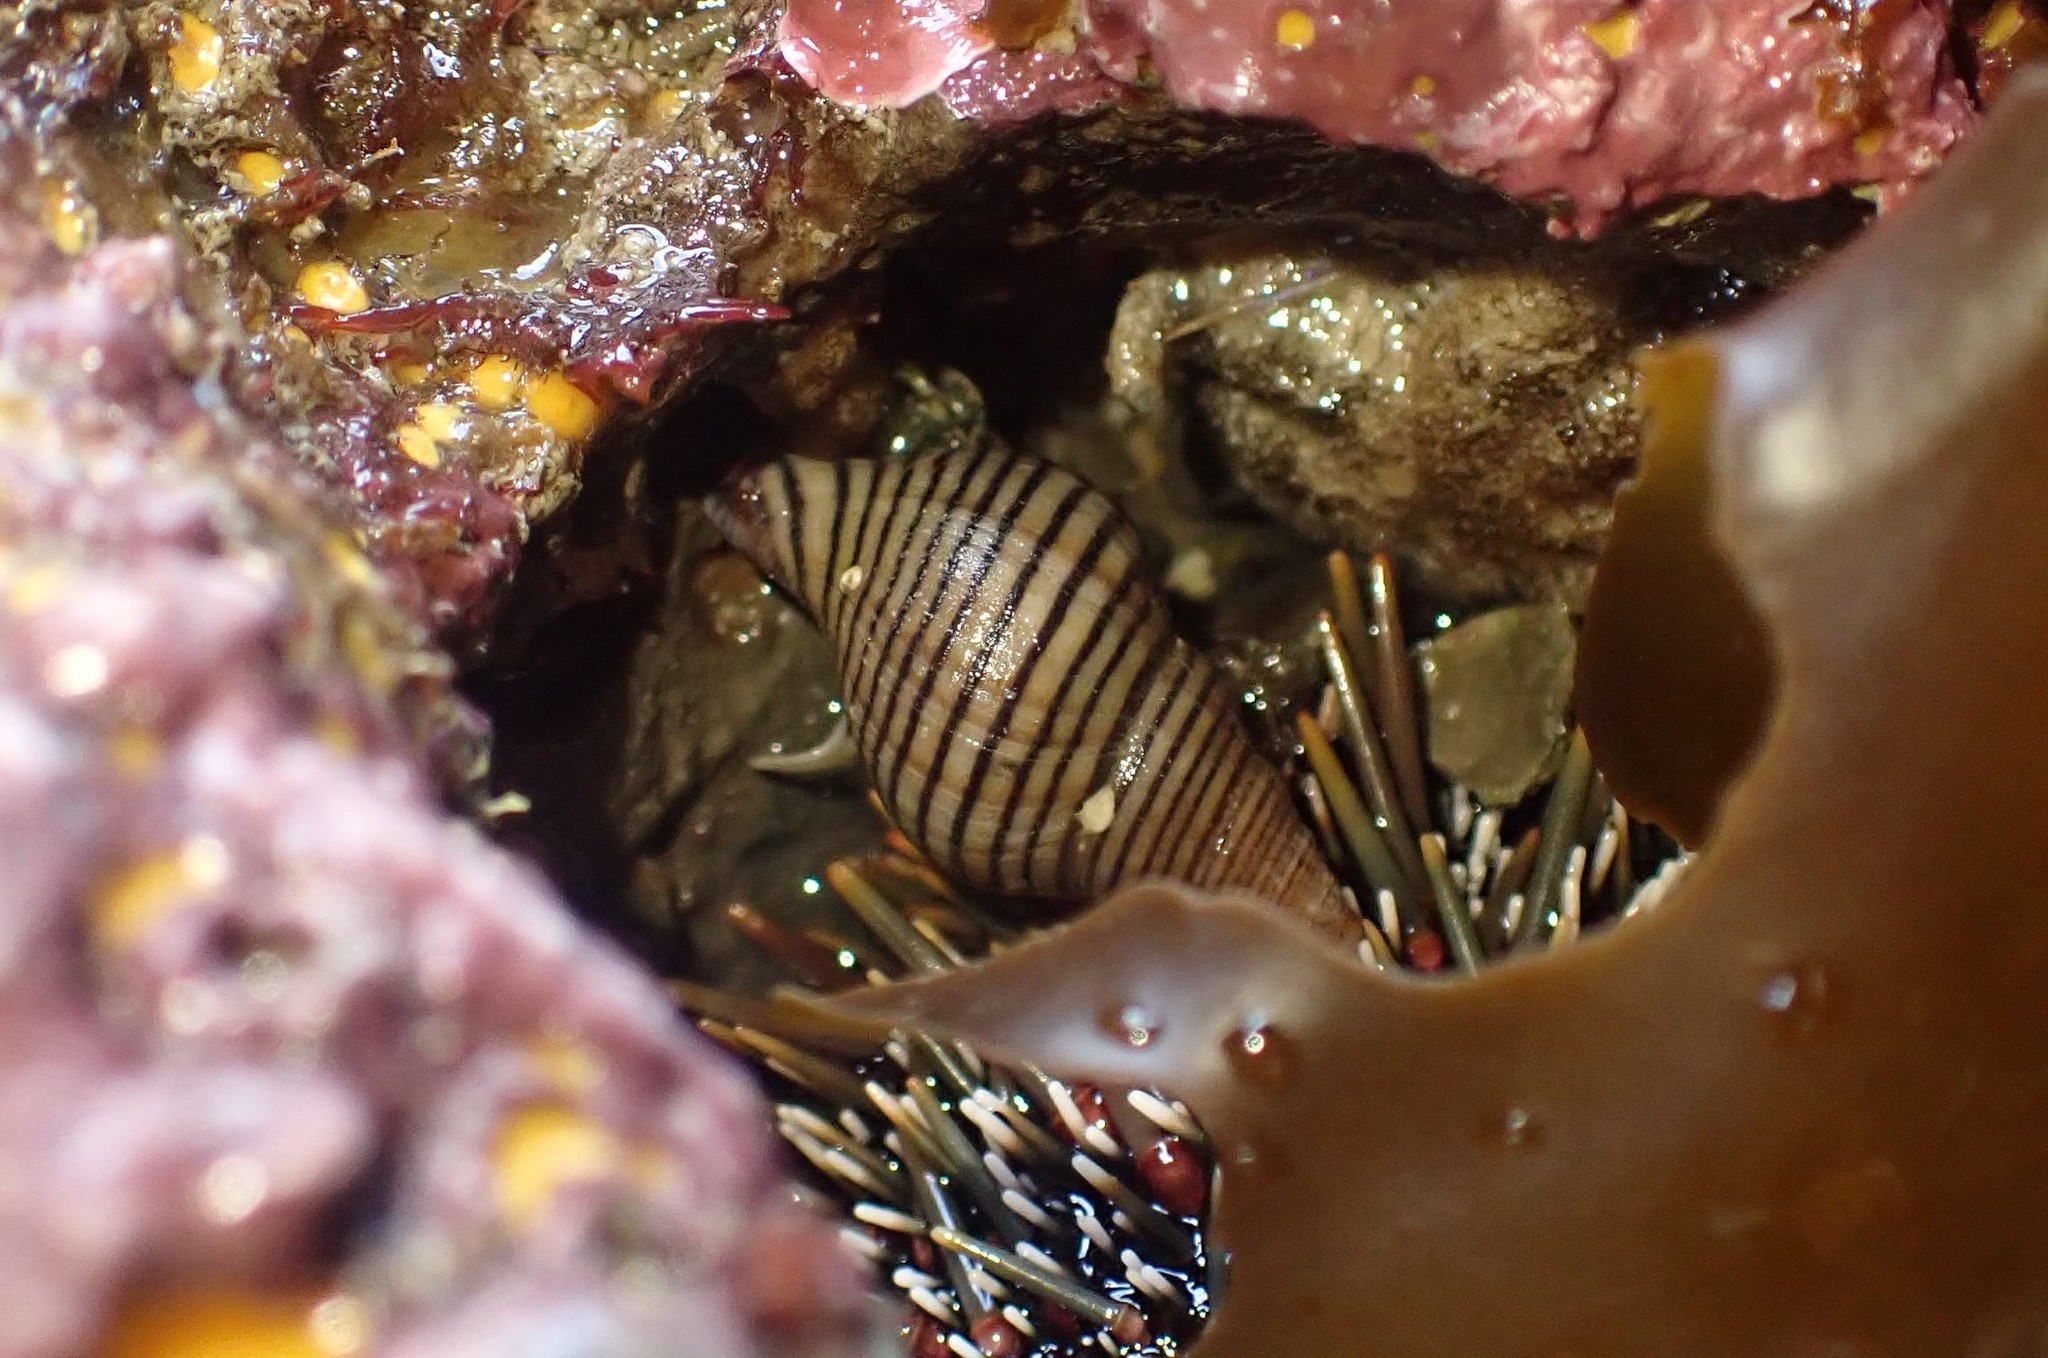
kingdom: Animalia
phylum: Mollusca
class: Gastropoda
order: Neogastropoda
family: Tudiclidae
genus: Buccinulum
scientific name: Buccinulum linea
